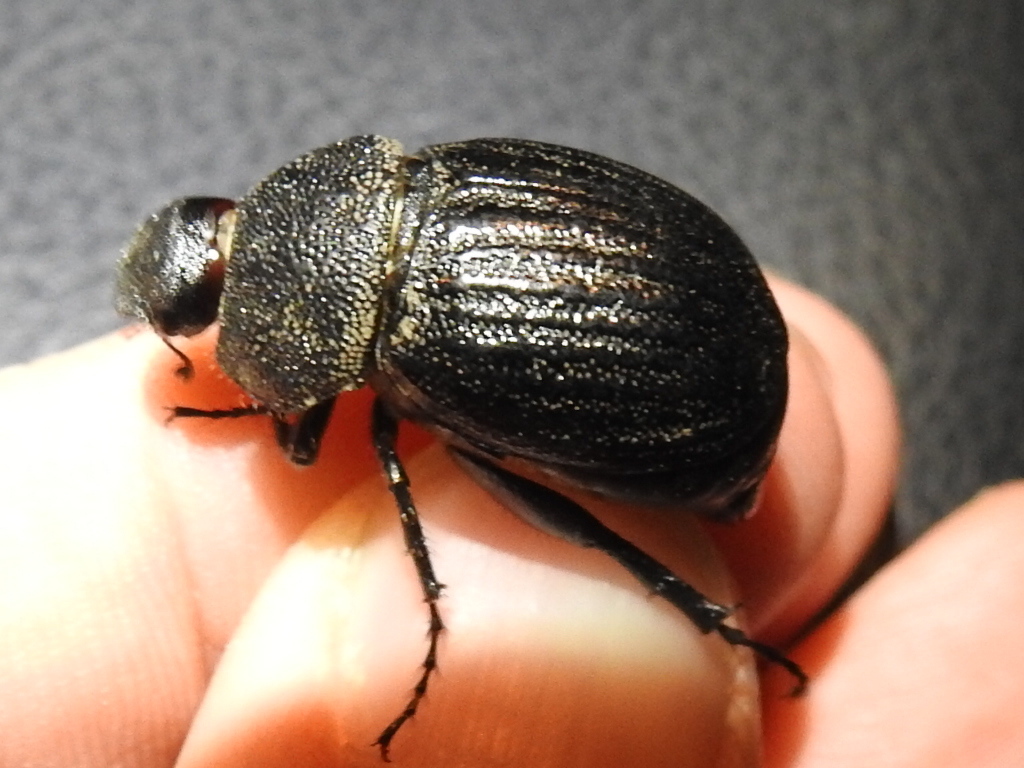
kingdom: Animalia
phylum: Arthropoda
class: Insecta
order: Coleoptera
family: Scarabaeidae
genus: Phyllophaga
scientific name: Phyllophaga cribrosa
